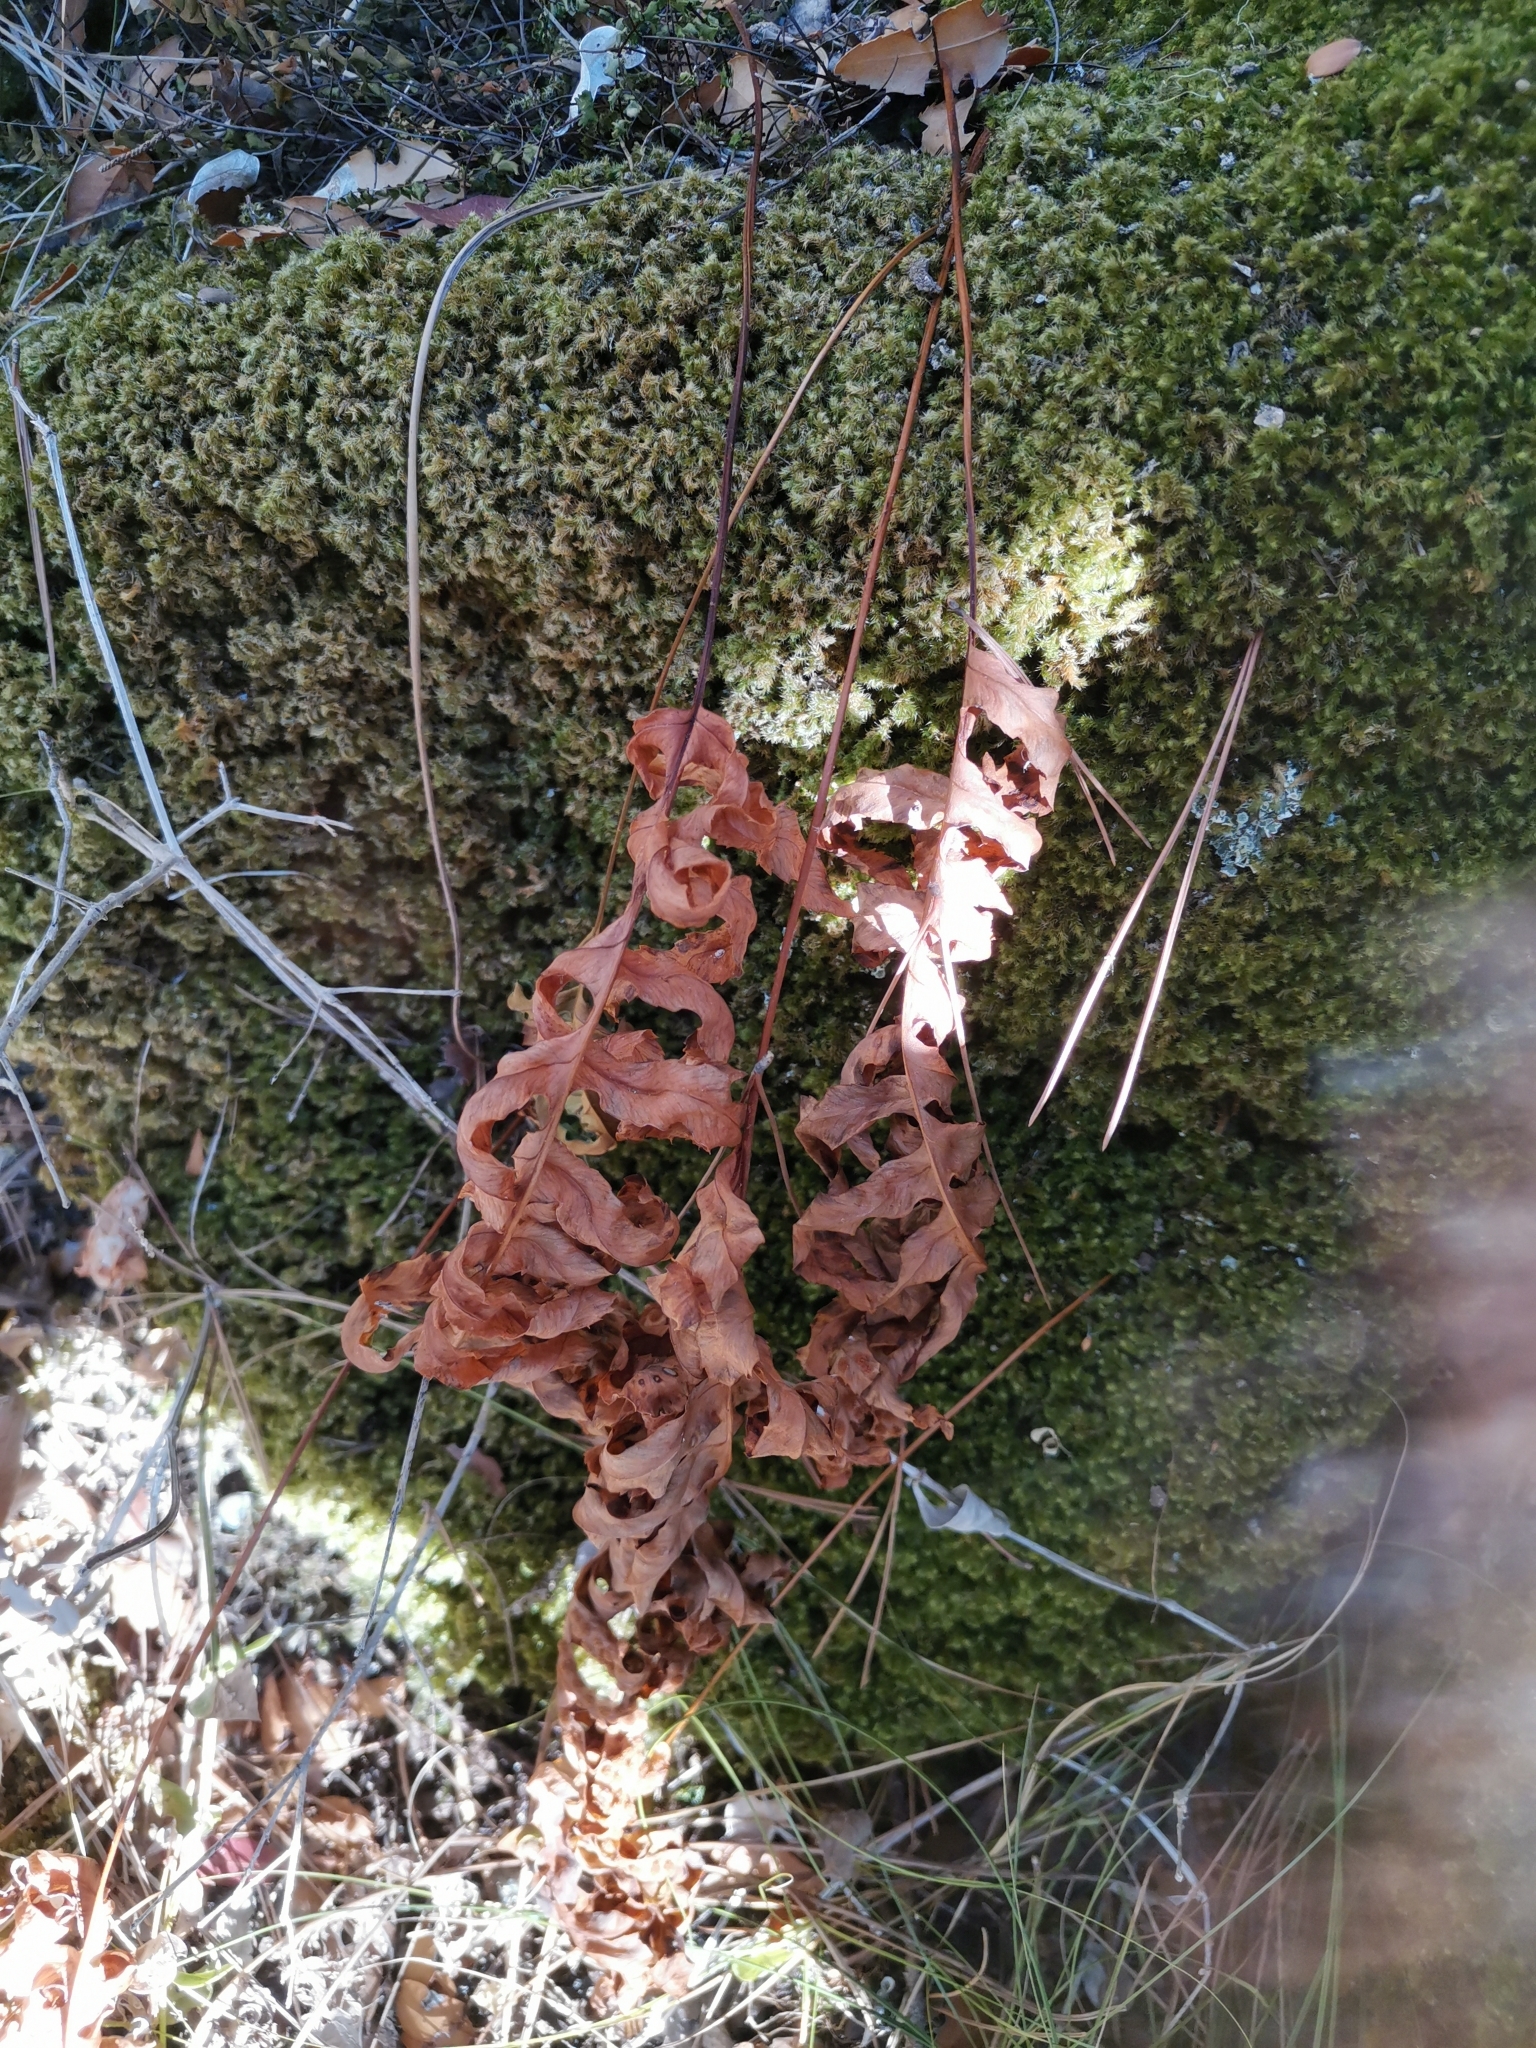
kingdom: Plantae
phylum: Tracheophyta
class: Polypodiopsida
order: Polypodiales
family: Polypodiaceae
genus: Polypodium
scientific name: Polypodium cambricum
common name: Southern polypody
